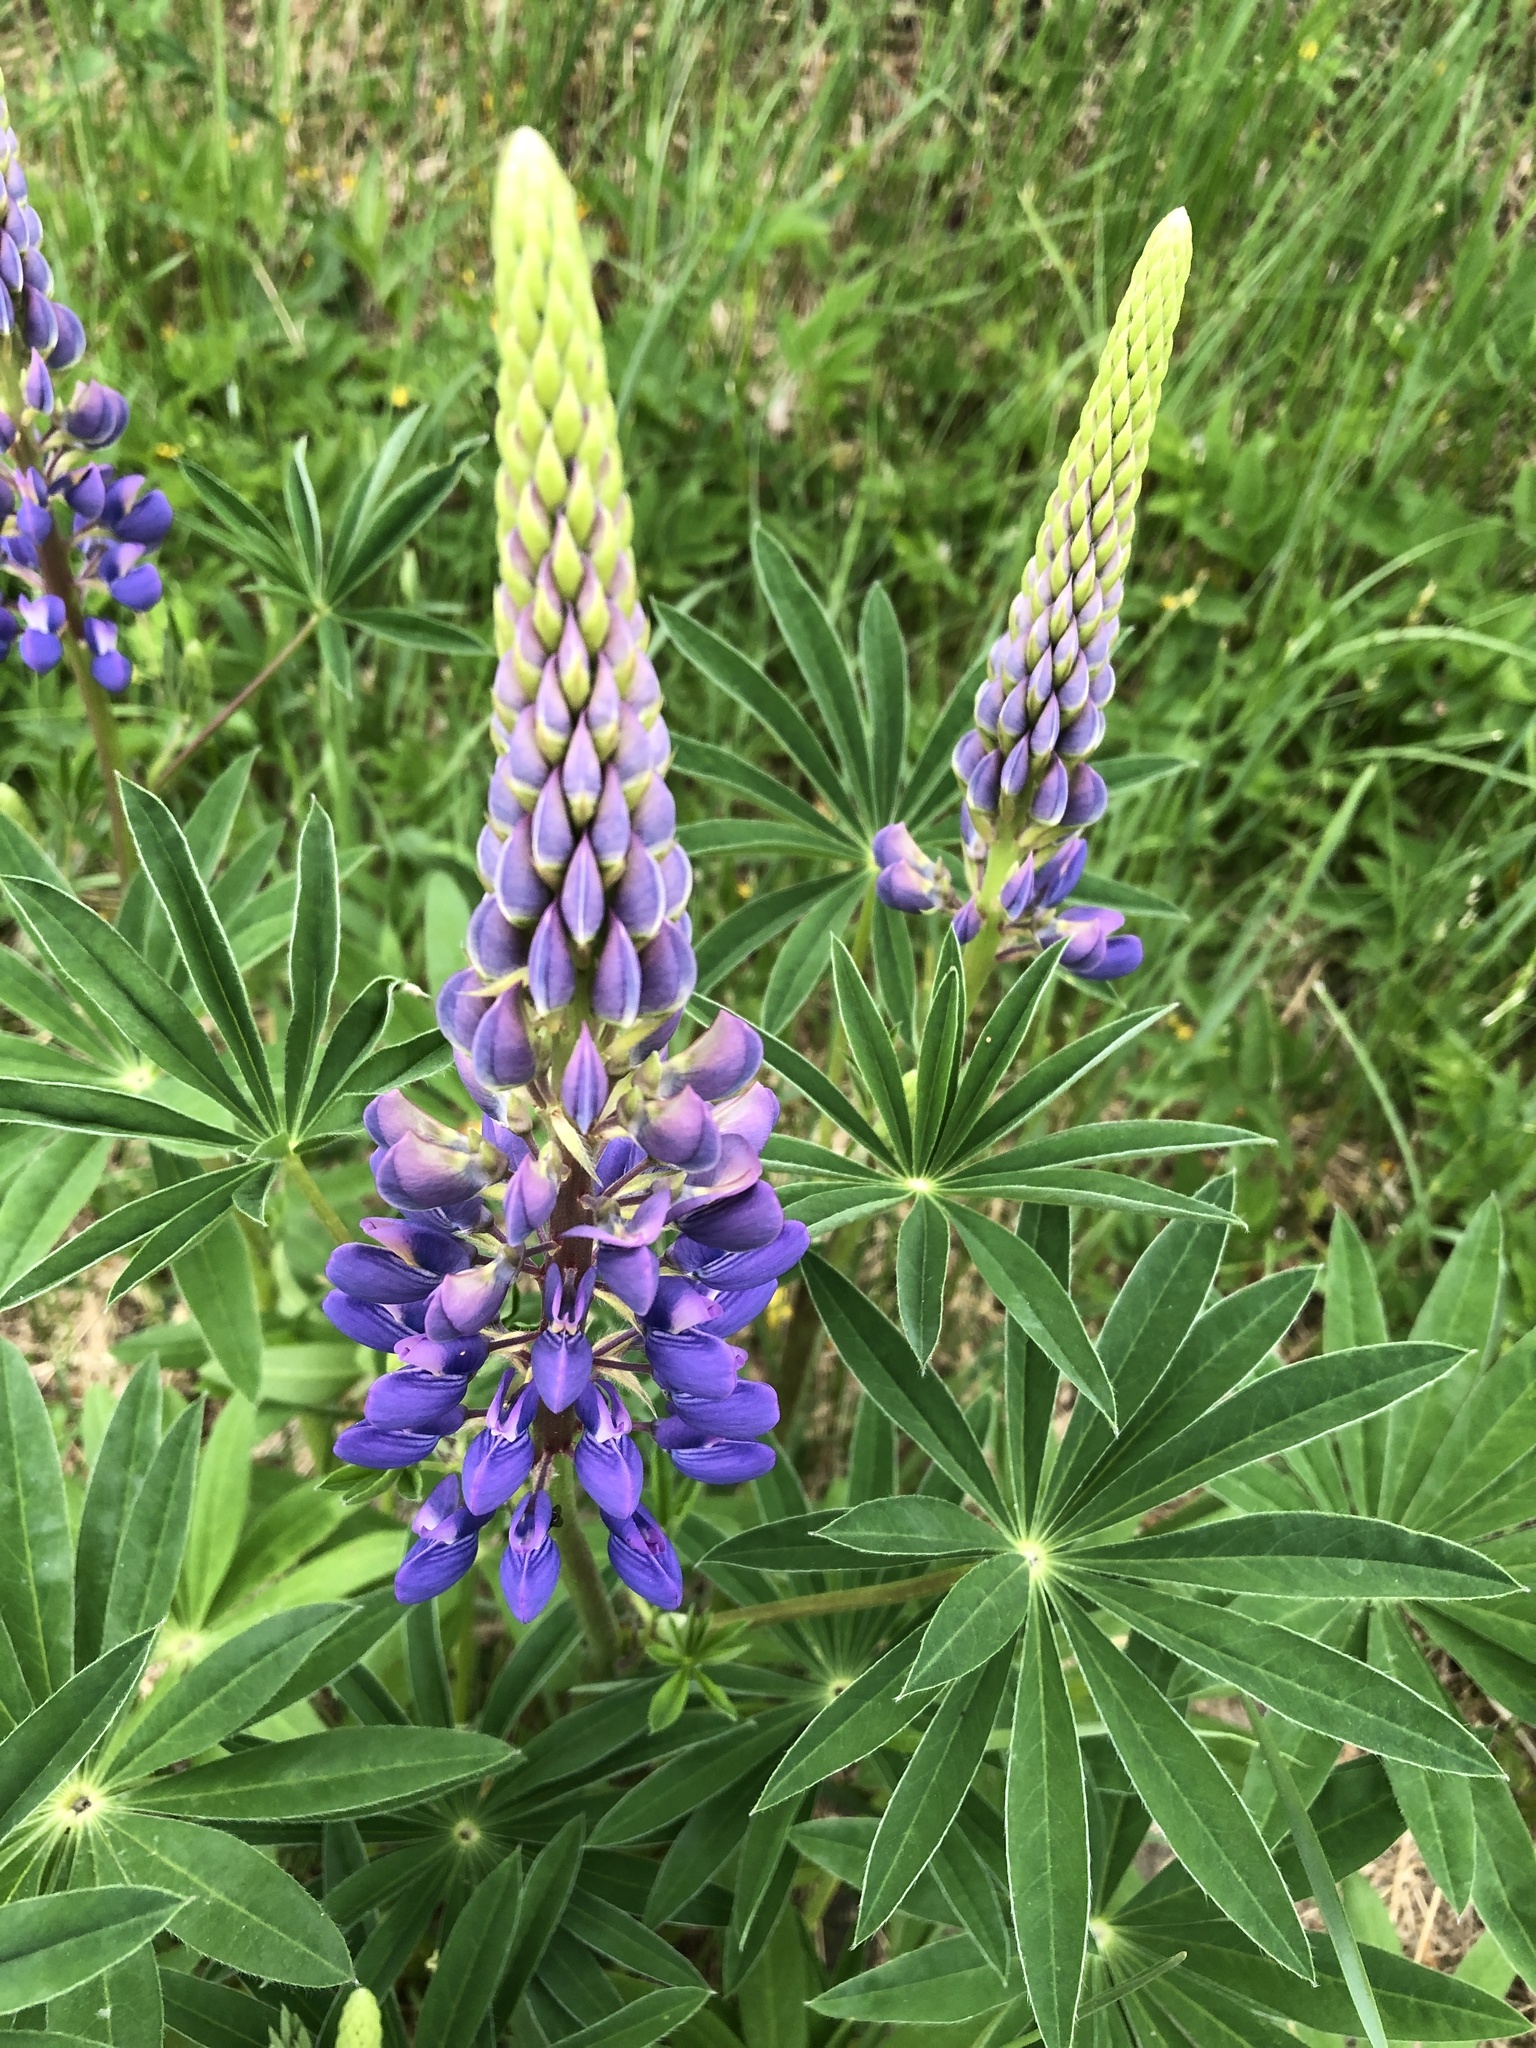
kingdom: Plantae
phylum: Tracheophyta
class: Magnoliopsida
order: Fabales
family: Fabaceae
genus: Lupinus
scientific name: Lupinus polyphyllus
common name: Garden lupin
